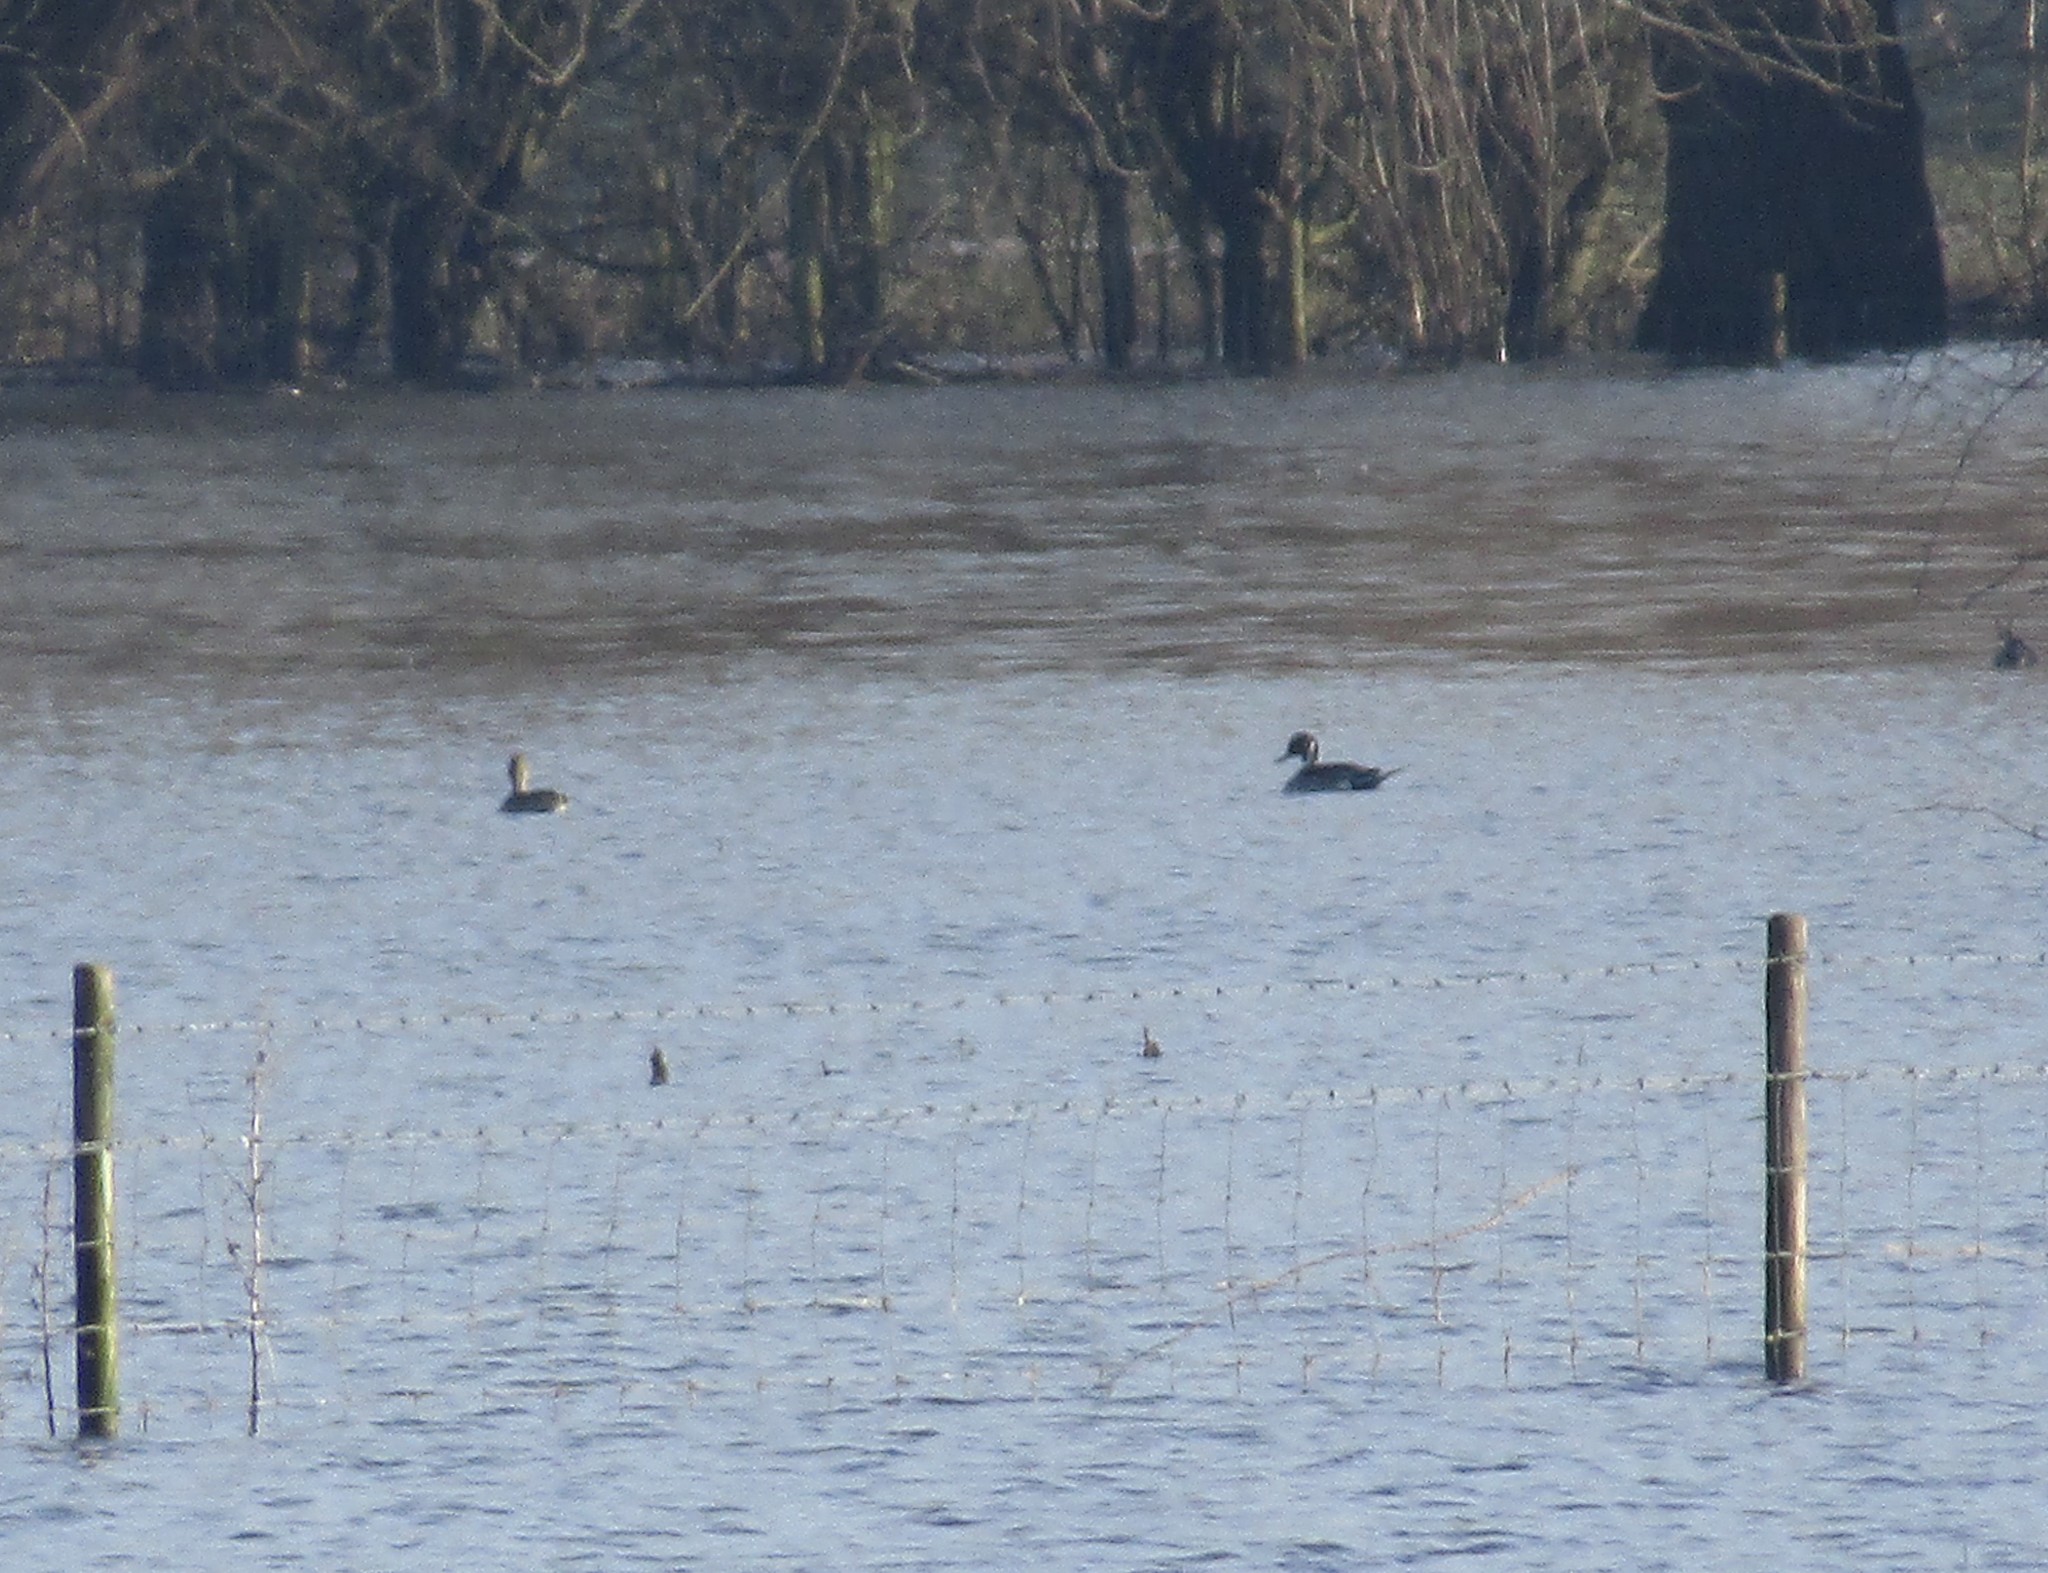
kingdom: Animalia
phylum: Chordata
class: Aves
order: Anseriformes
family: Anatidae
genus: Anas
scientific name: Anas acuta
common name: Northern pintail
